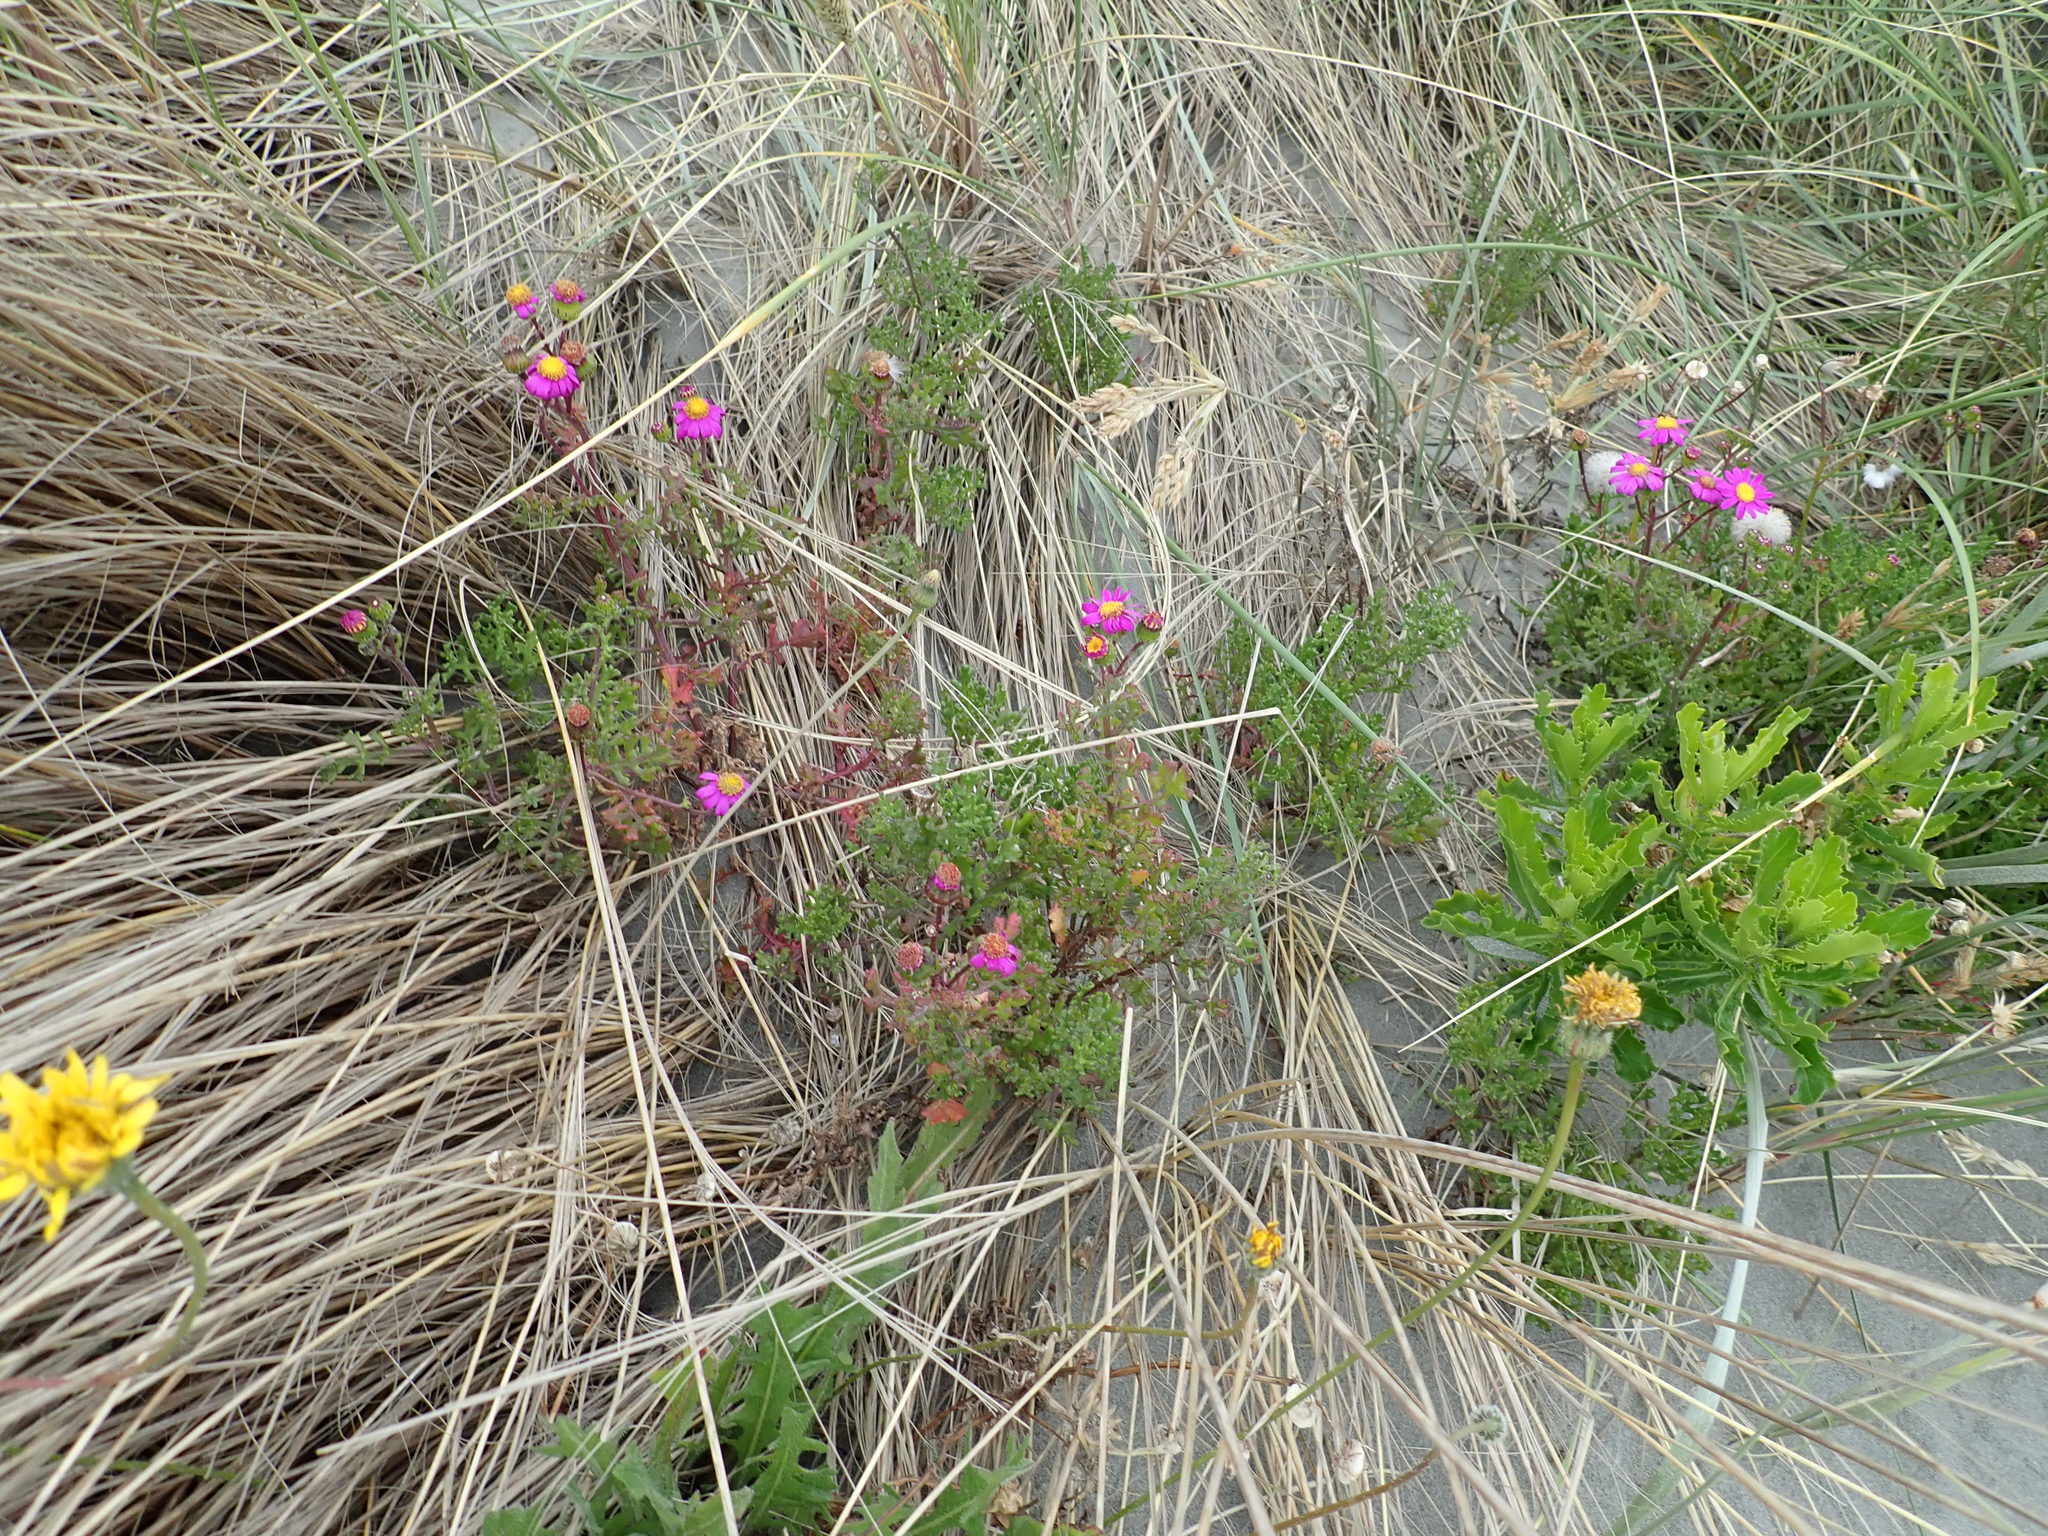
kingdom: Plantae
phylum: Tracheophyta
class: Magnoliopsida
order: Asterales
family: Asteraceae
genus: Senecio
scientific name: Senecio elegans
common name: Purple groundsel
